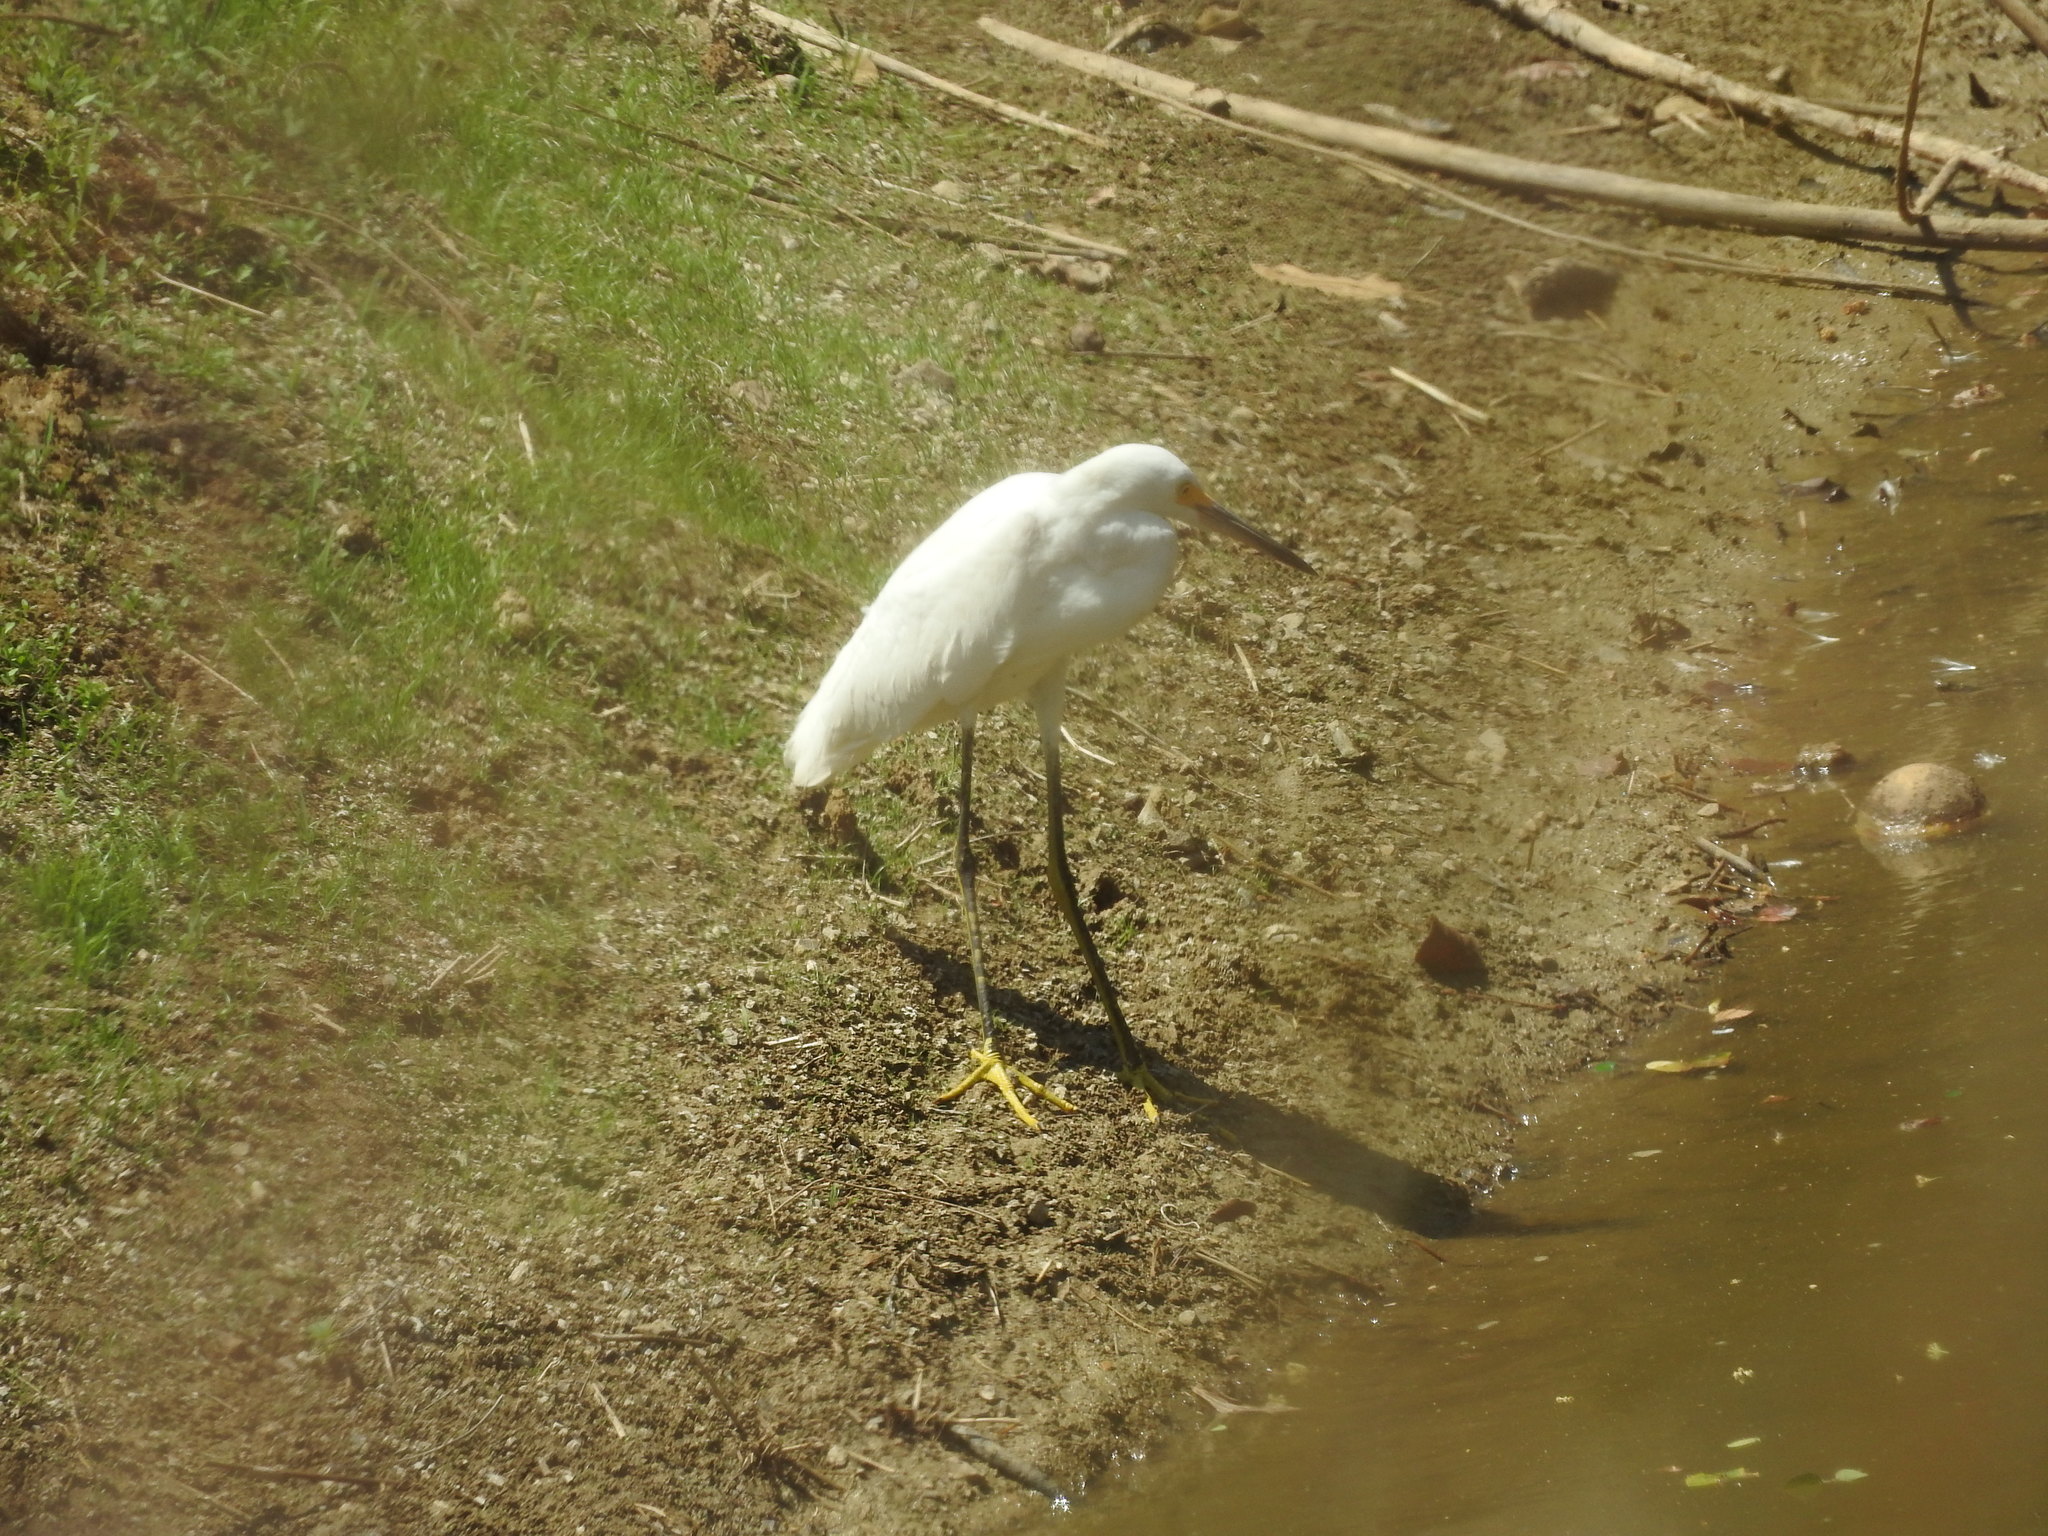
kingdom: Animalia
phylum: Chordata
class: Aves
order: Pelecaniformes
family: Ardeidae
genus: Egretta
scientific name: Egretta thula
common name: Snowy egret
